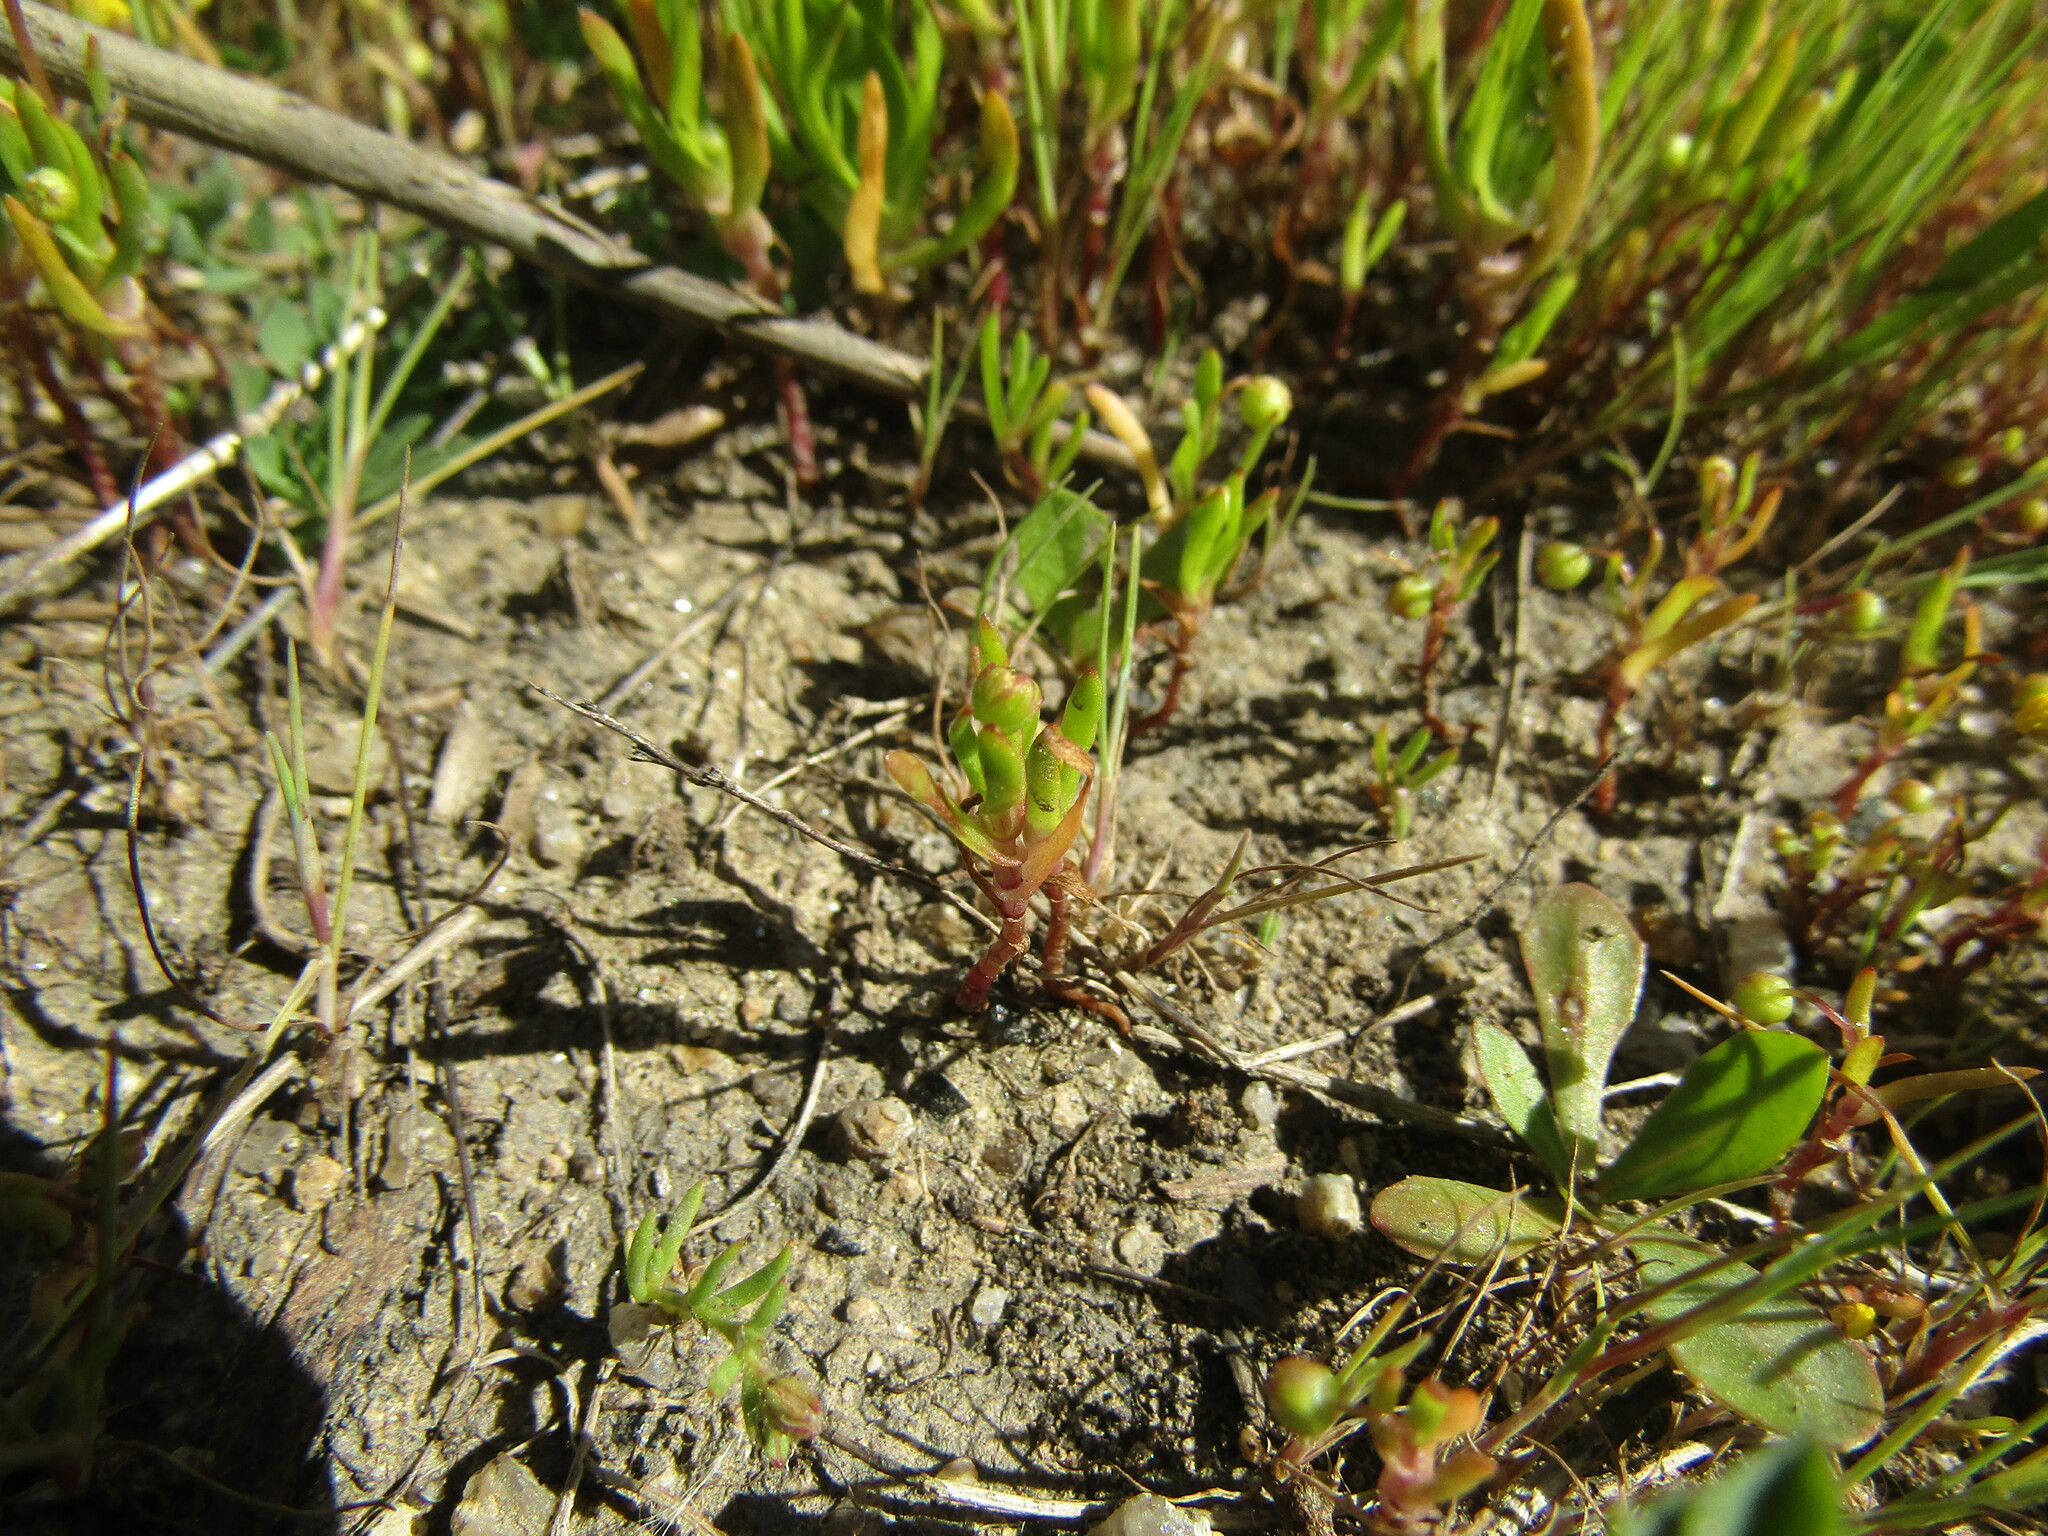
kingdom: Plantae
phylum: Tracheophyta
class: Magnoliopsida
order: Asterales
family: Asteraceae
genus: Cotula
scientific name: Cotula coronopifolia
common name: Buttonweed
